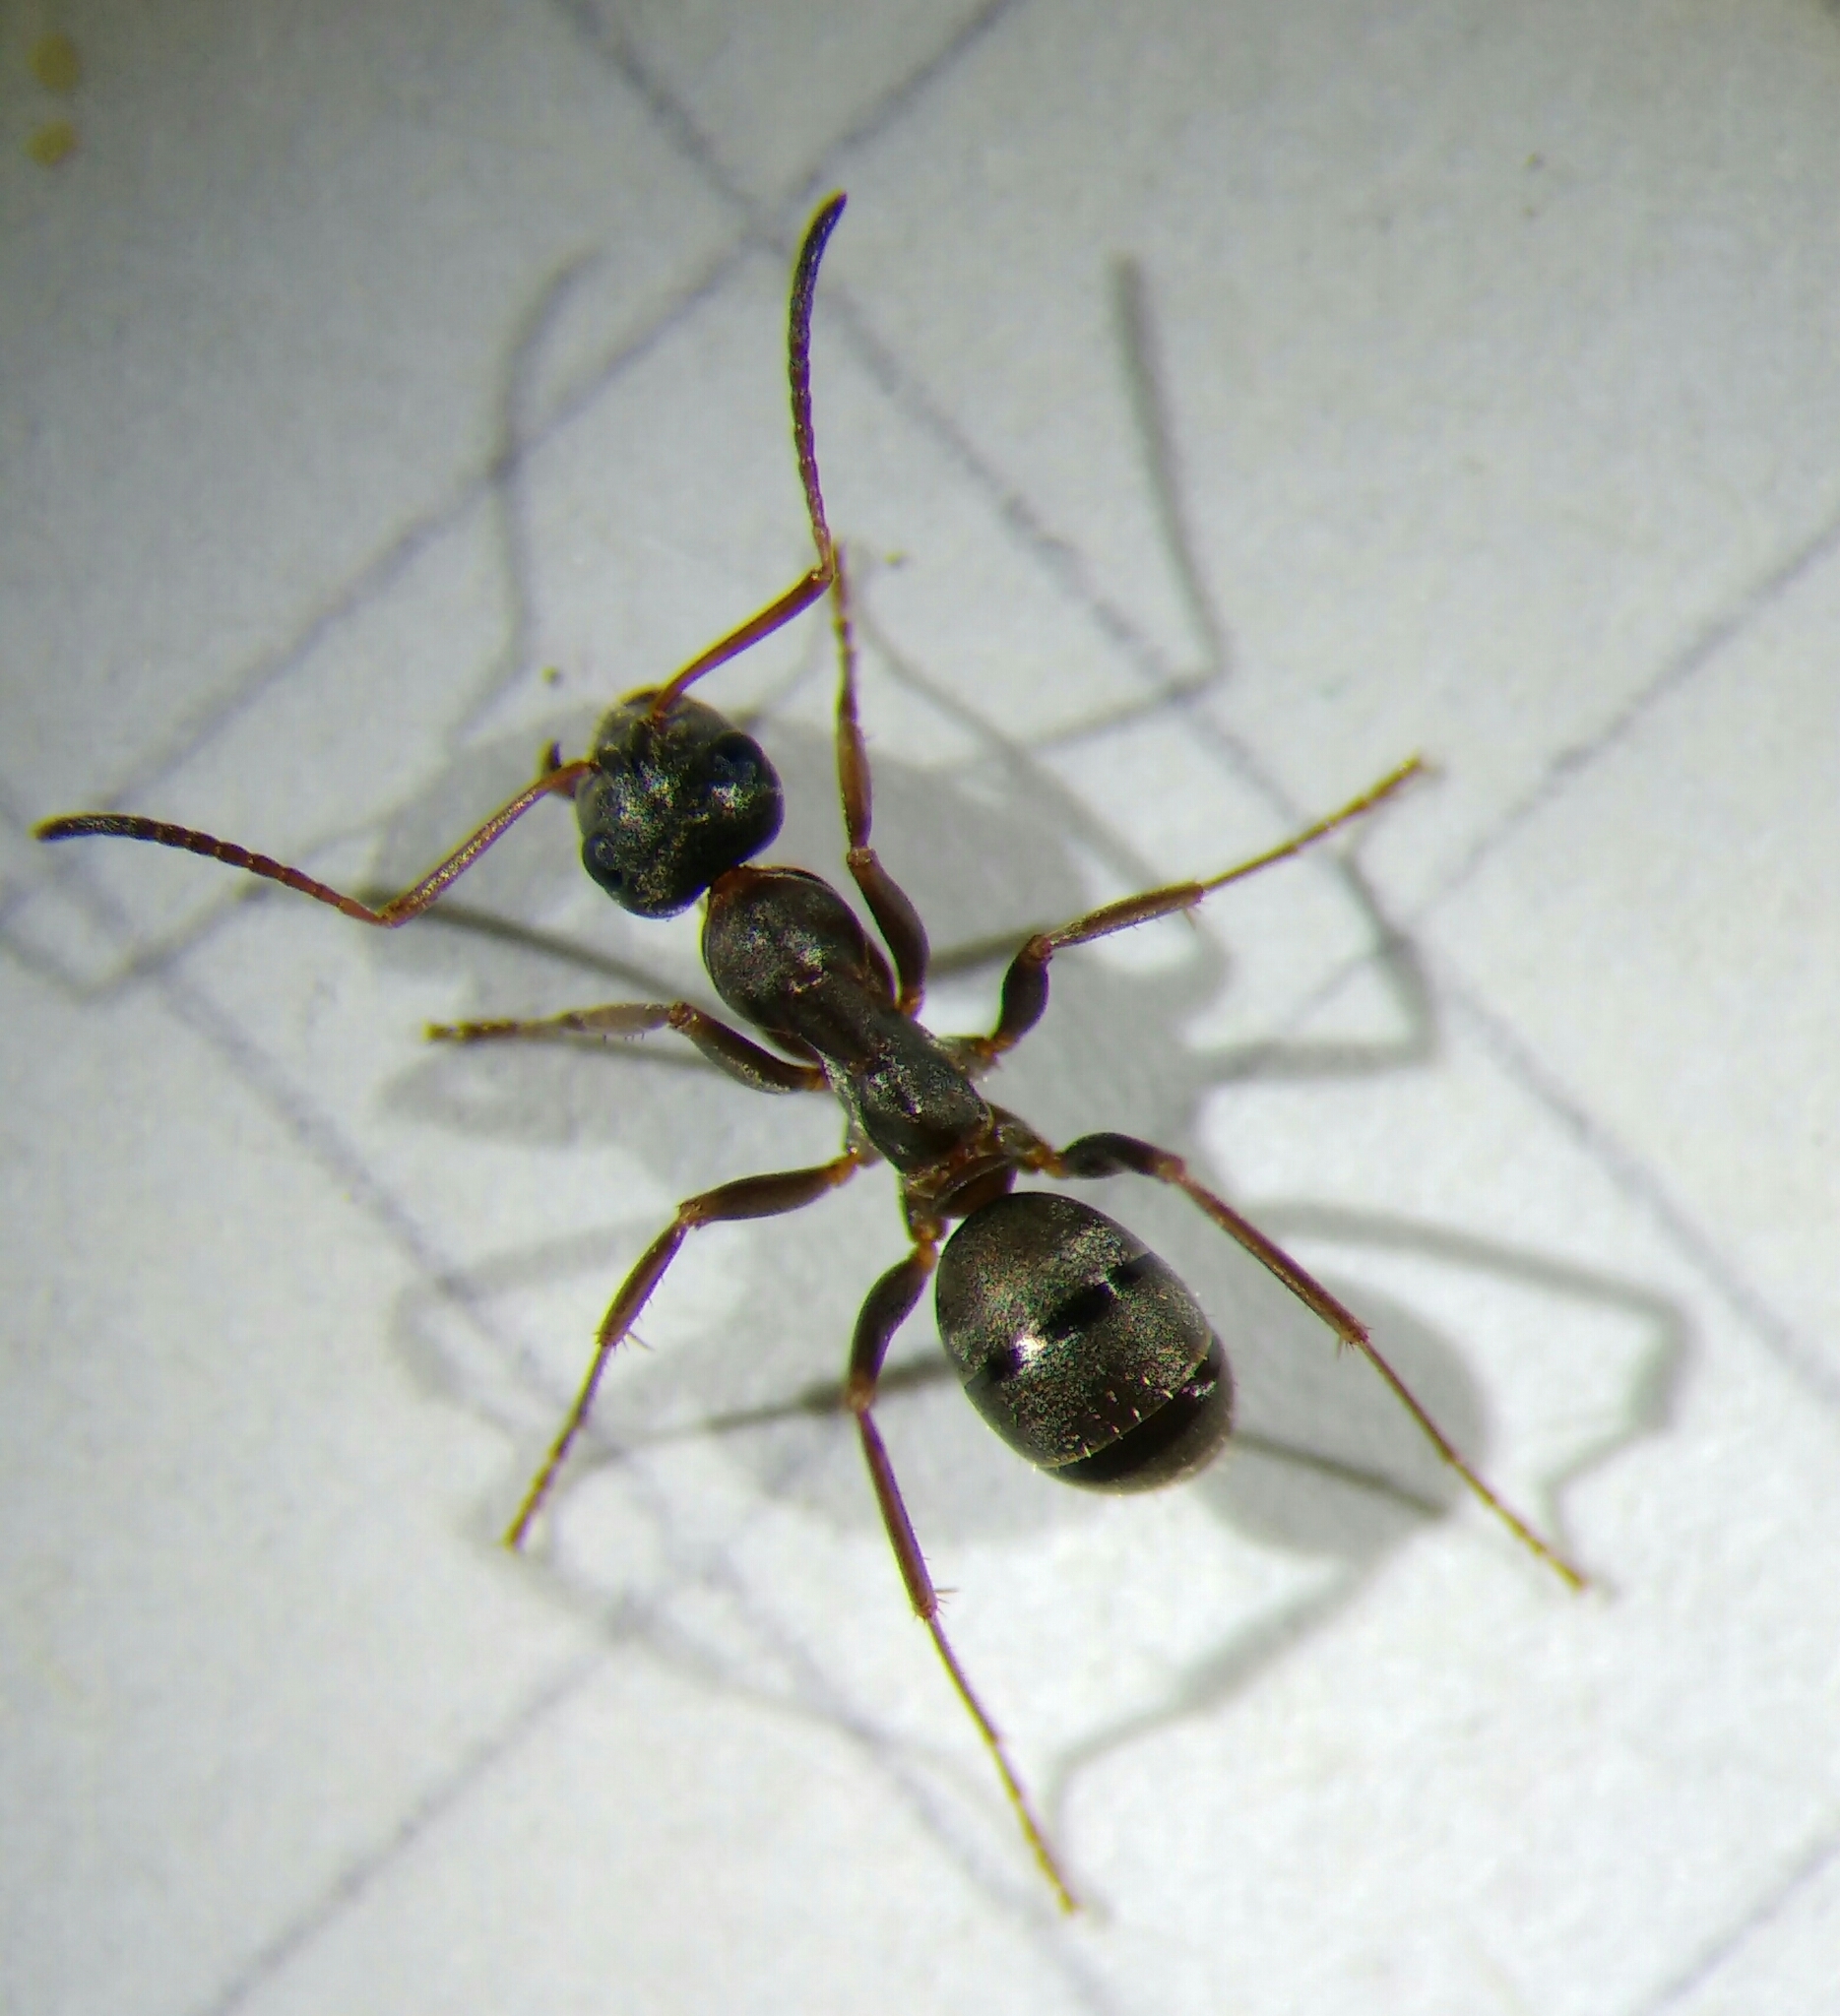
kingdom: Animalia
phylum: Arthropoda
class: Insecta
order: Hymenoptera
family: Formicidae
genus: Formica
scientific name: Formica fusca
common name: Silky ant
